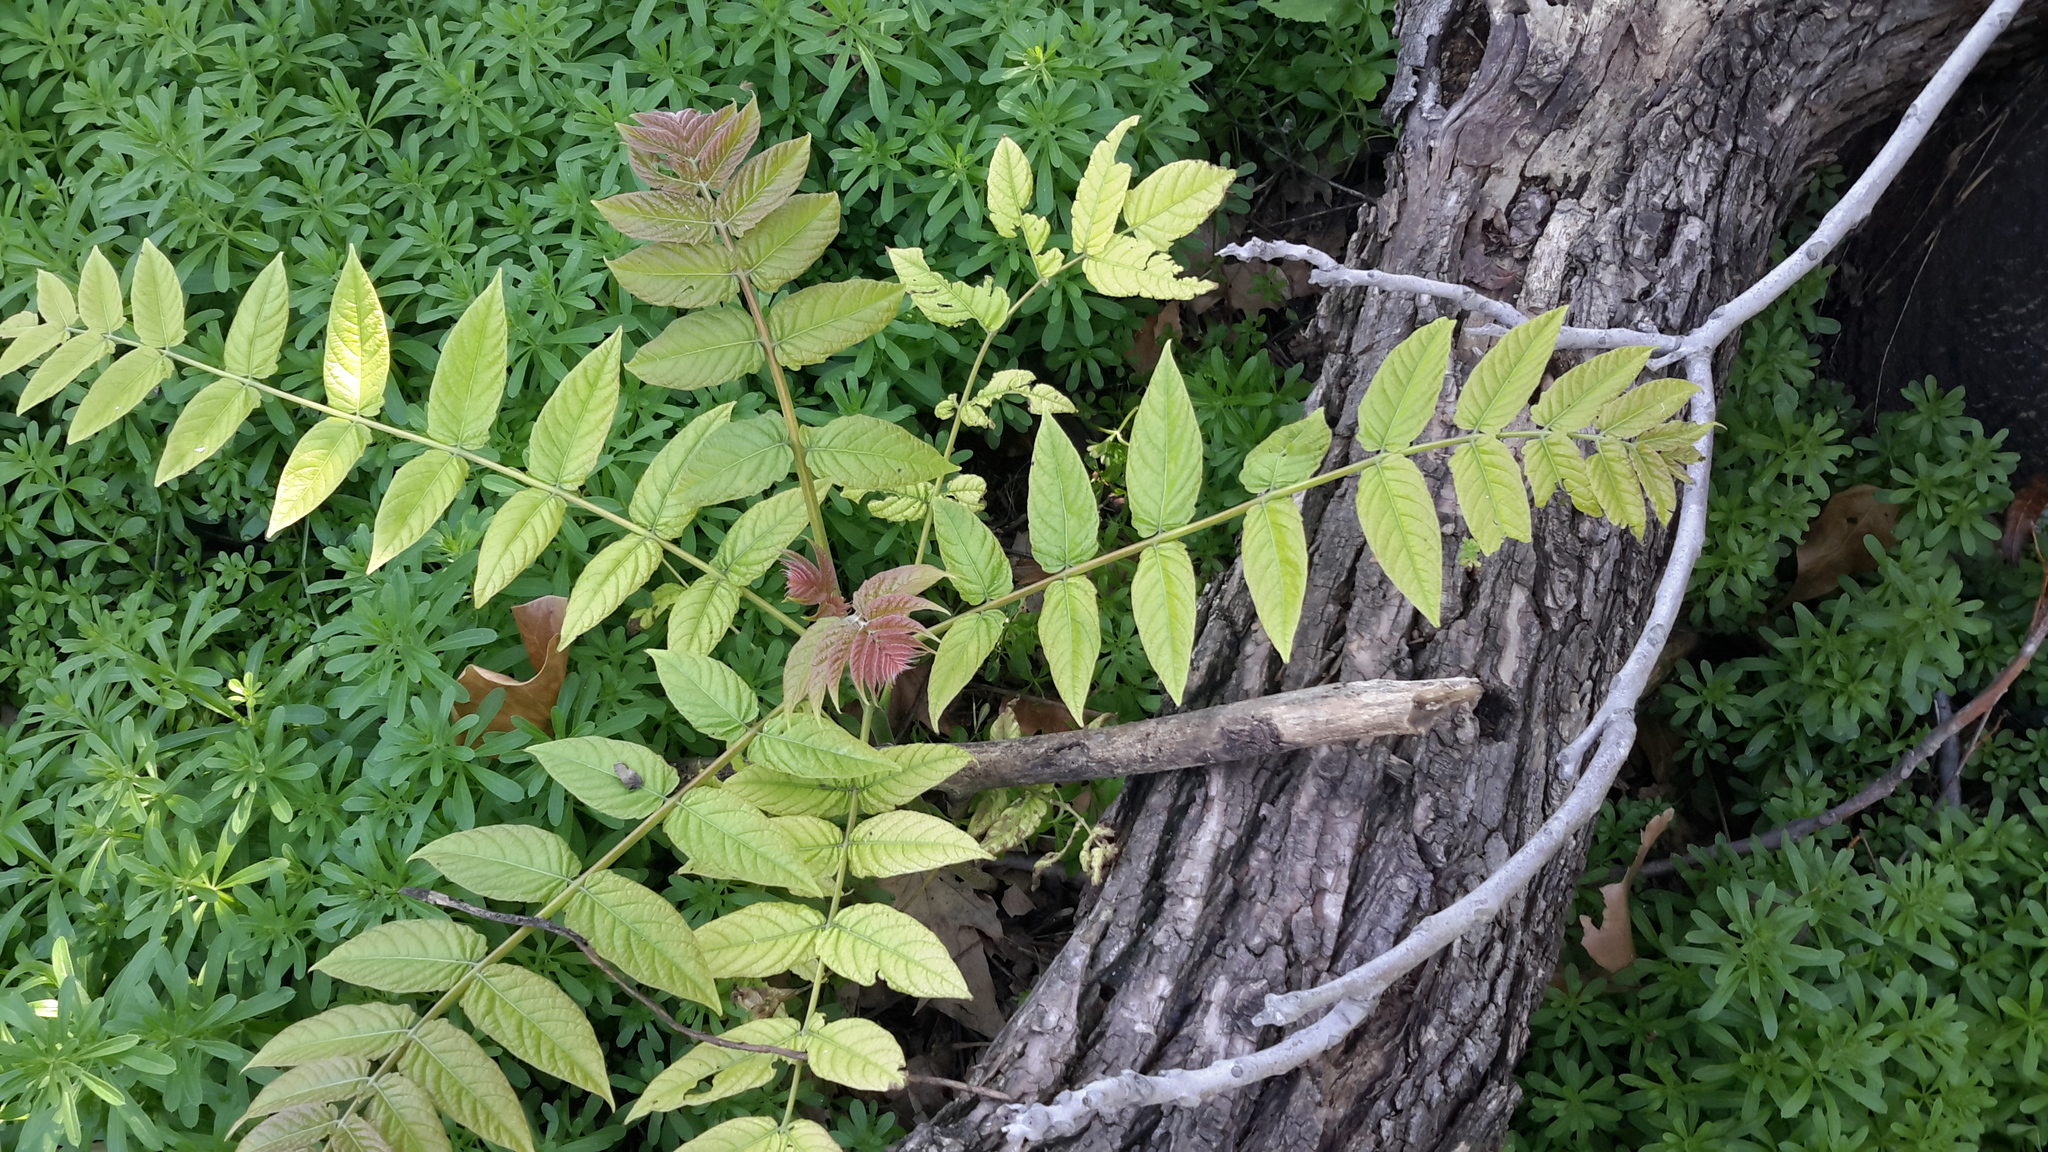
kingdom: Plantae
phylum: Tracheophyta
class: Magnoliopsida
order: Sapindales
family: Simaroubaceae
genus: Ailanthus
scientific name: Ailanthus altissima
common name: Tree-of-heaven
